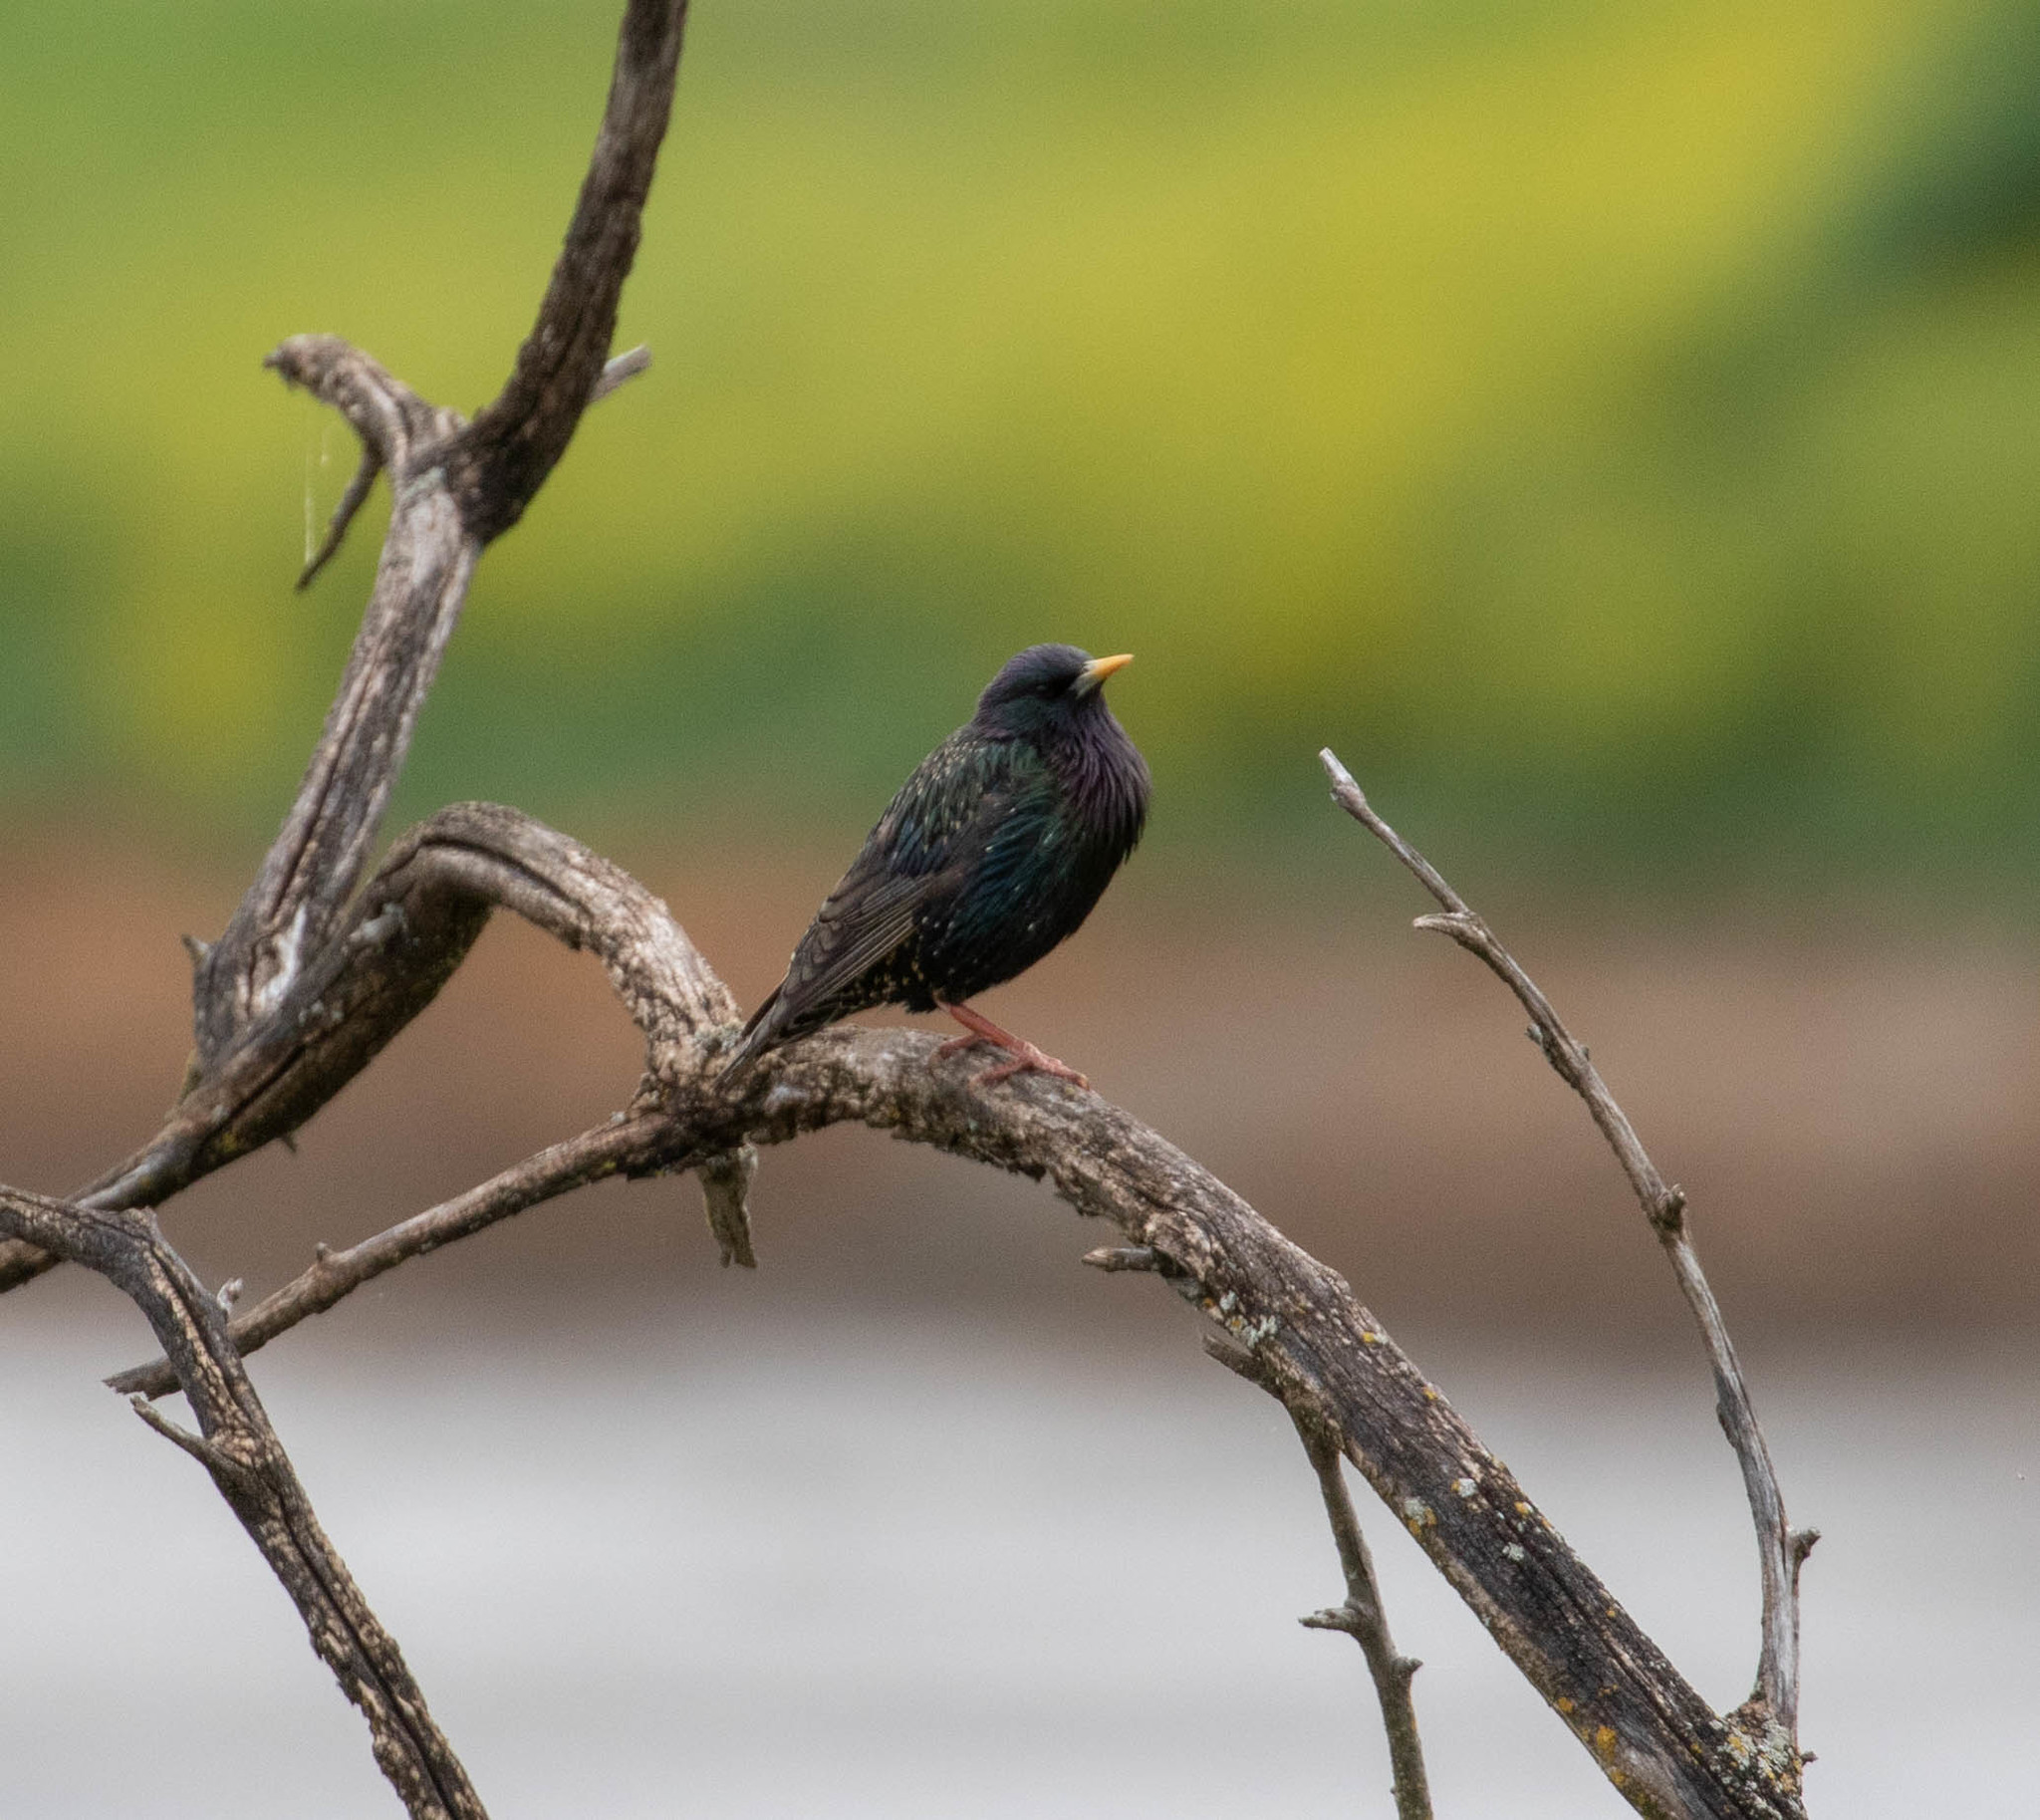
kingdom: Animalia
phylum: Chordata
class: Aves
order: Passeriformes
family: Sturnidae
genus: Sturnus
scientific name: Sturnus vulgaris
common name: Common starling
